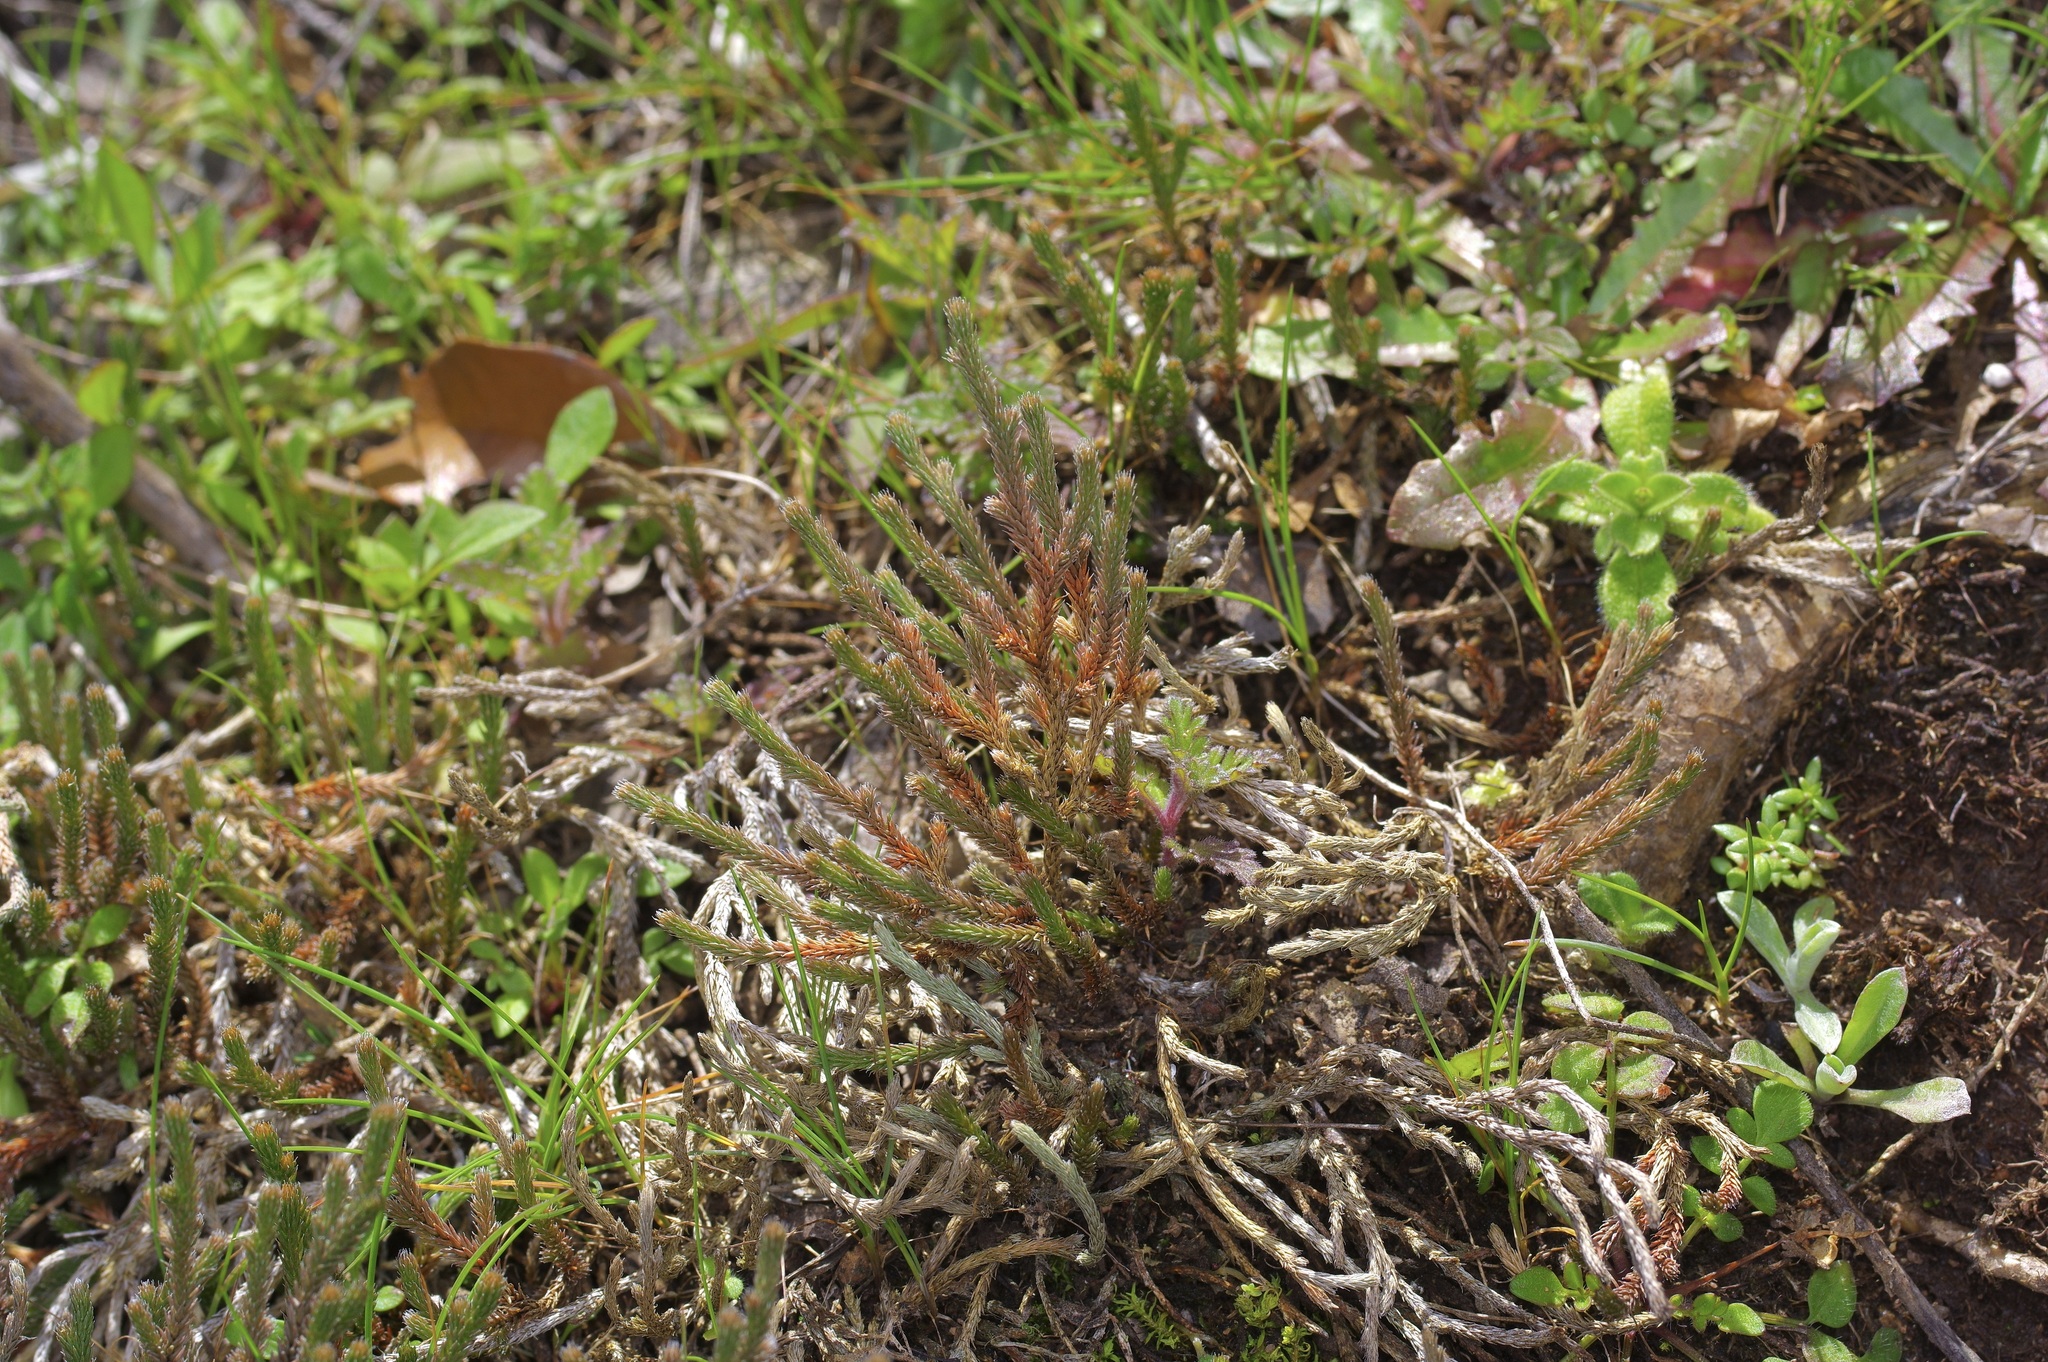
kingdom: Plantae
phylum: Tracheophyta
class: Lycopodiopsida
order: Selaginellales
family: Selaginellaceae
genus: Selaginella
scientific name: Selaginella corallina
